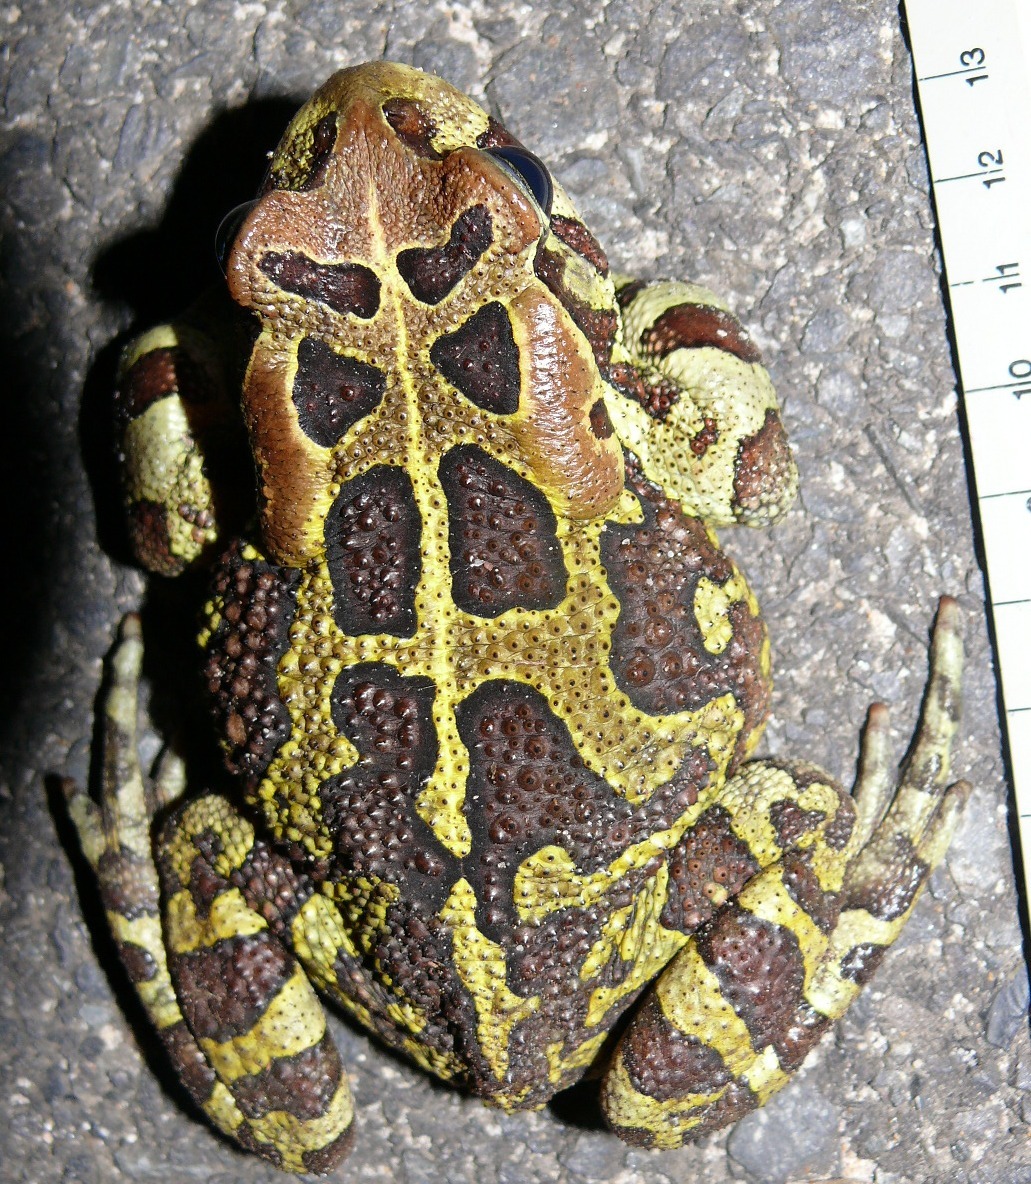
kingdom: Animalia
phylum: Chordata
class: Amphibia
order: Anura
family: Bufonidae
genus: Sclerophrys
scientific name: Sclerophrys pantherina
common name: Panther toad
